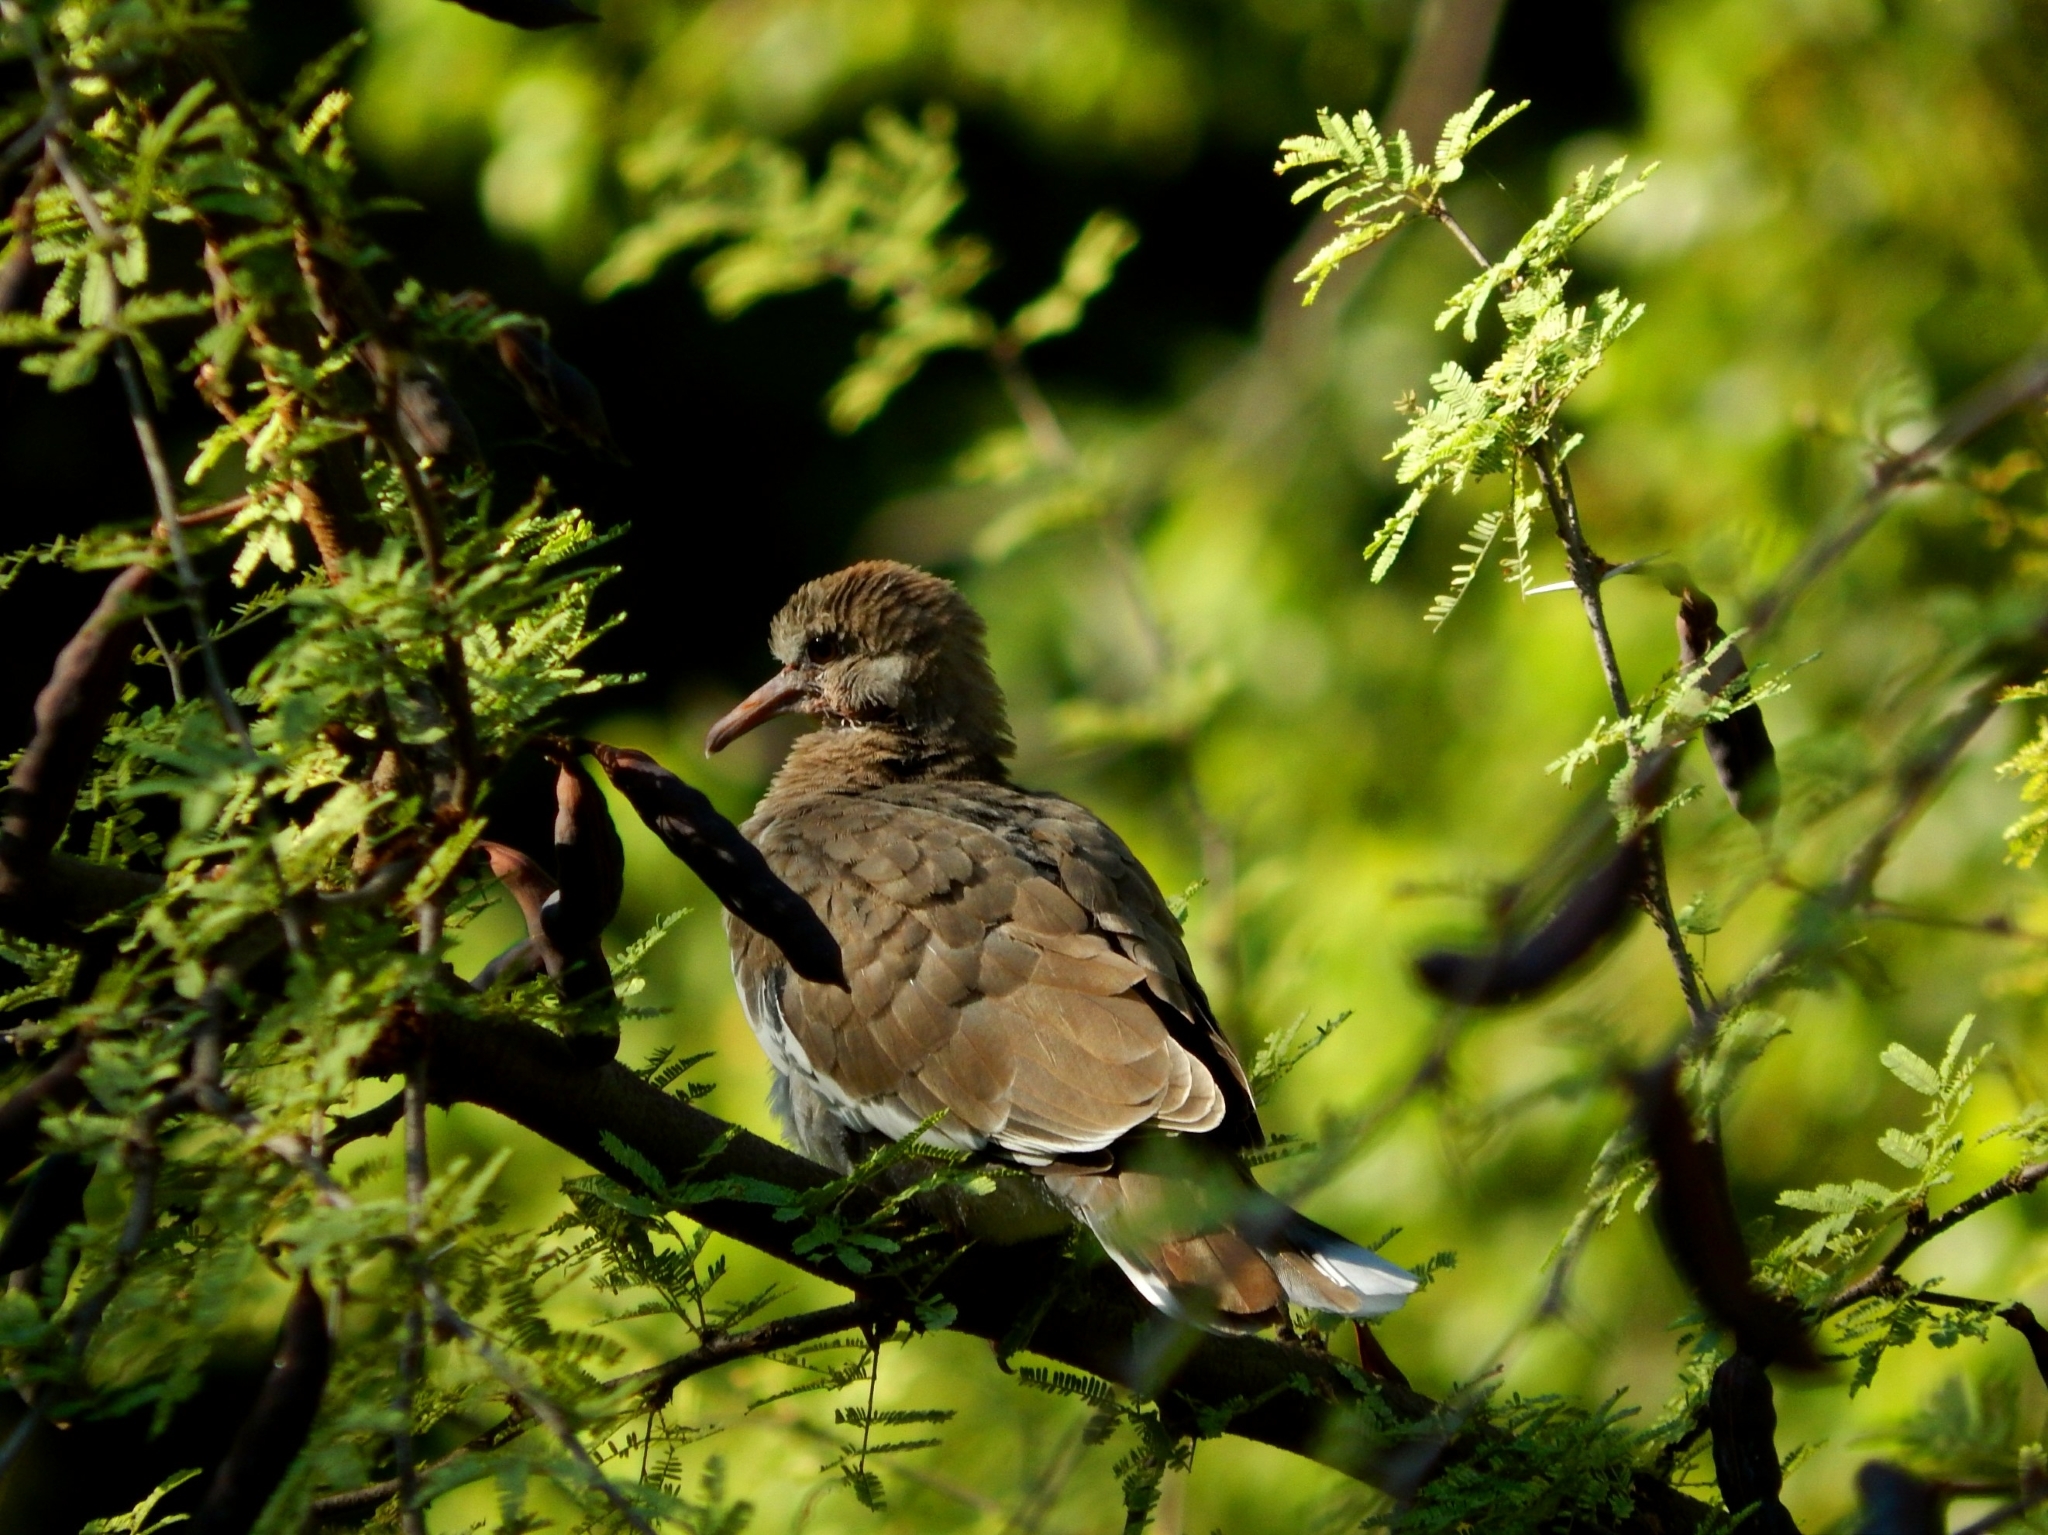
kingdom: Animalia
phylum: Chordata
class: Aves
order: Columbiformes
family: Columbidae
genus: Zenaida
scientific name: Zenaida asiatica
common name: White-winged dove
